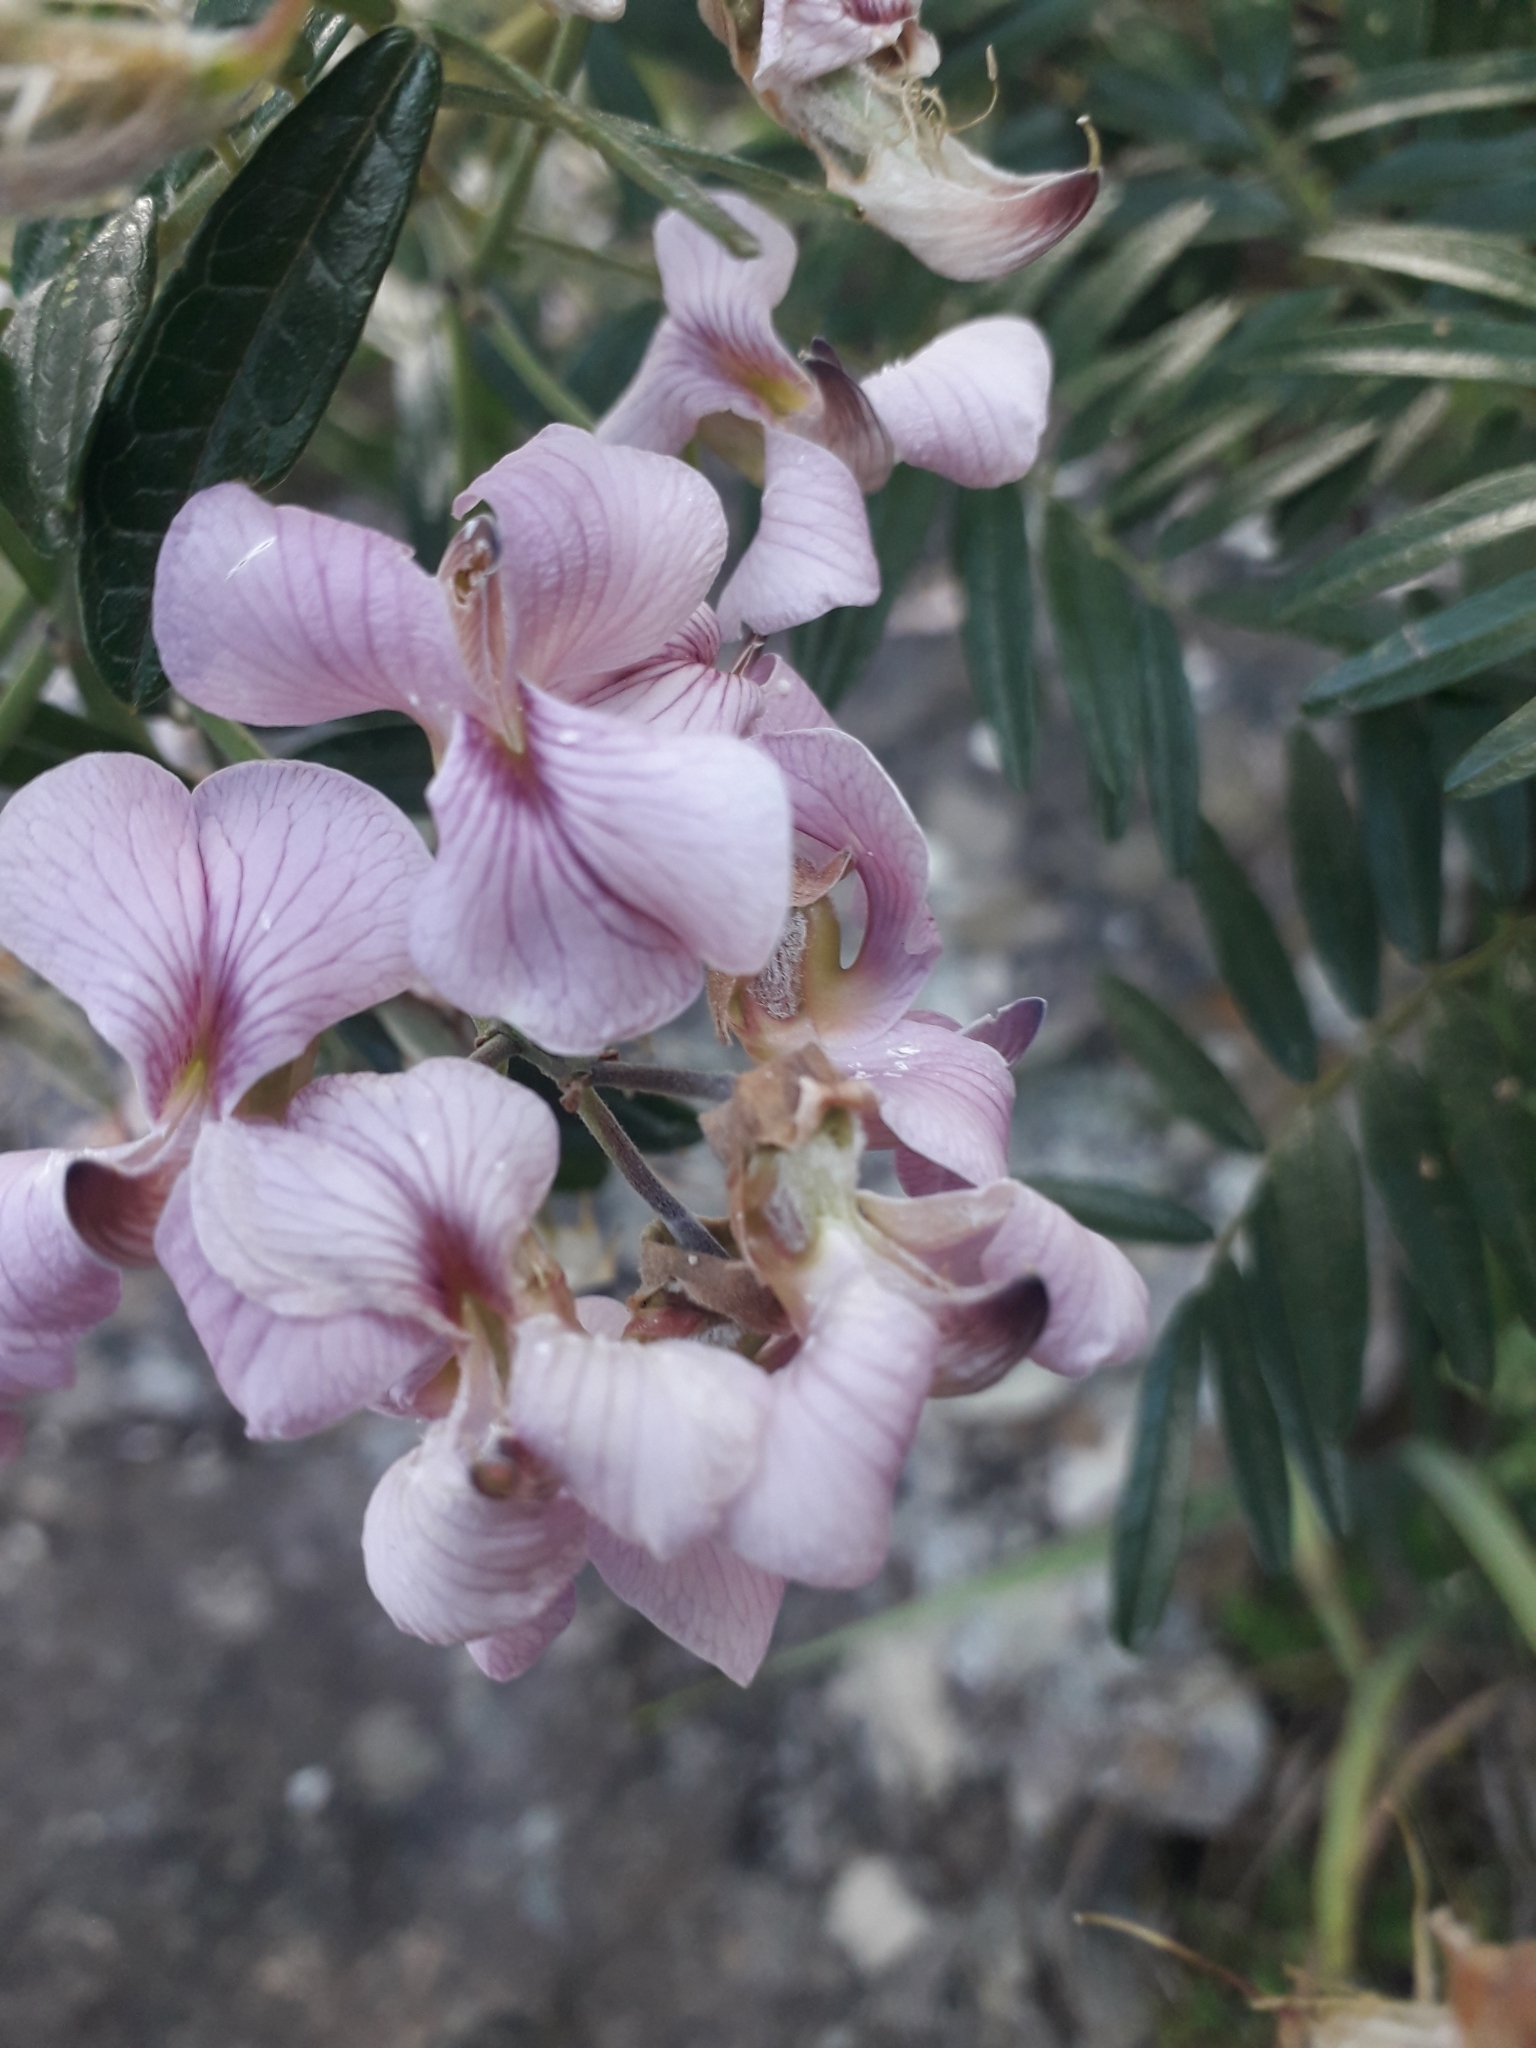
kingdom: Plantae
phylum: Tracheophyta
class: Magnoliopsida
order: Fabales
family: Fabaceae
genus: Virgilia
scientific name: Virgilia oroboides
